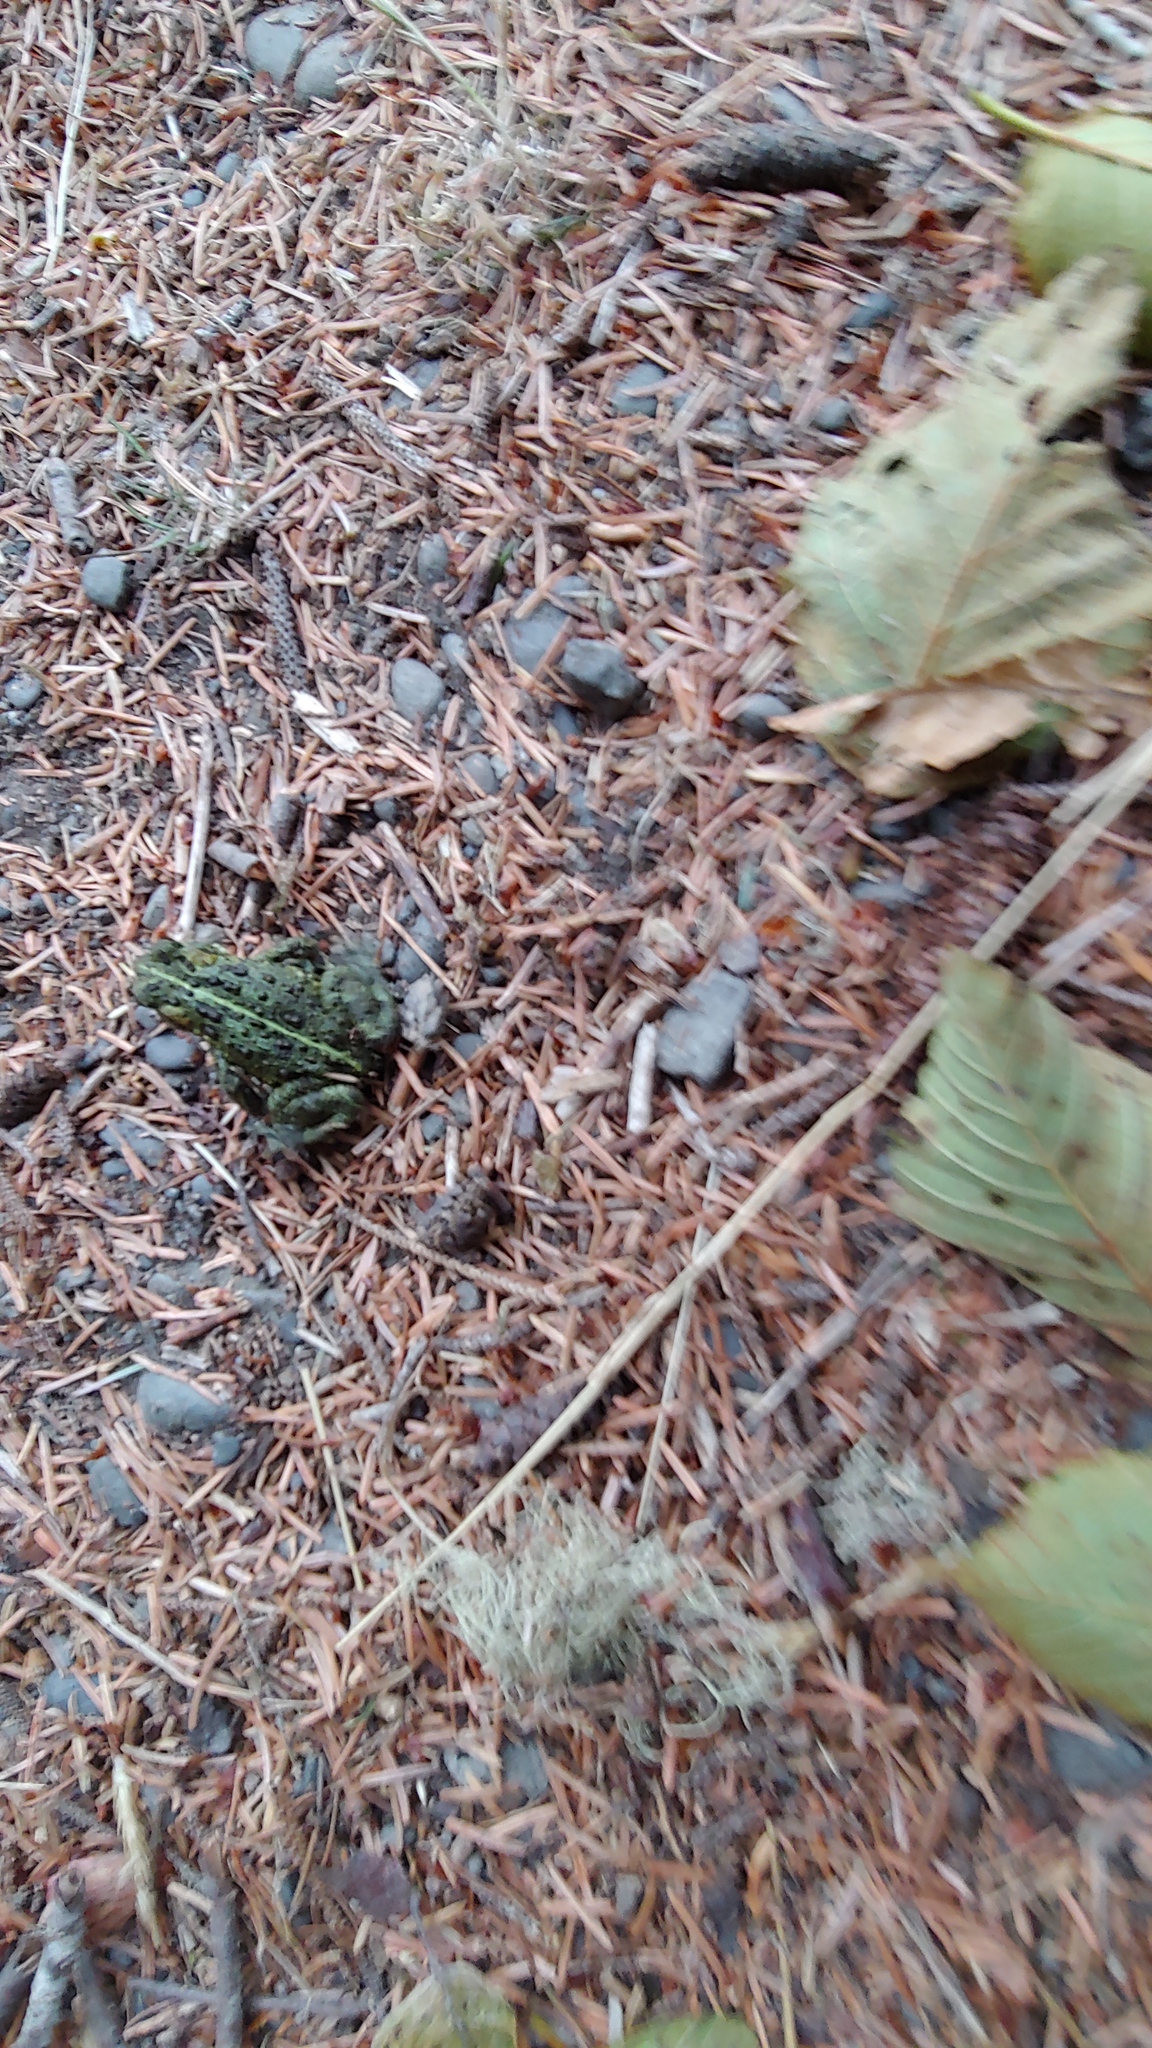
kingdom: Animalia
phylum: Chordata
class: Amphibia
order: Anura
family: Bufonidae
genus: Anaxyrus
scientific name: Anaxyrus boreas
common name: Western toad
